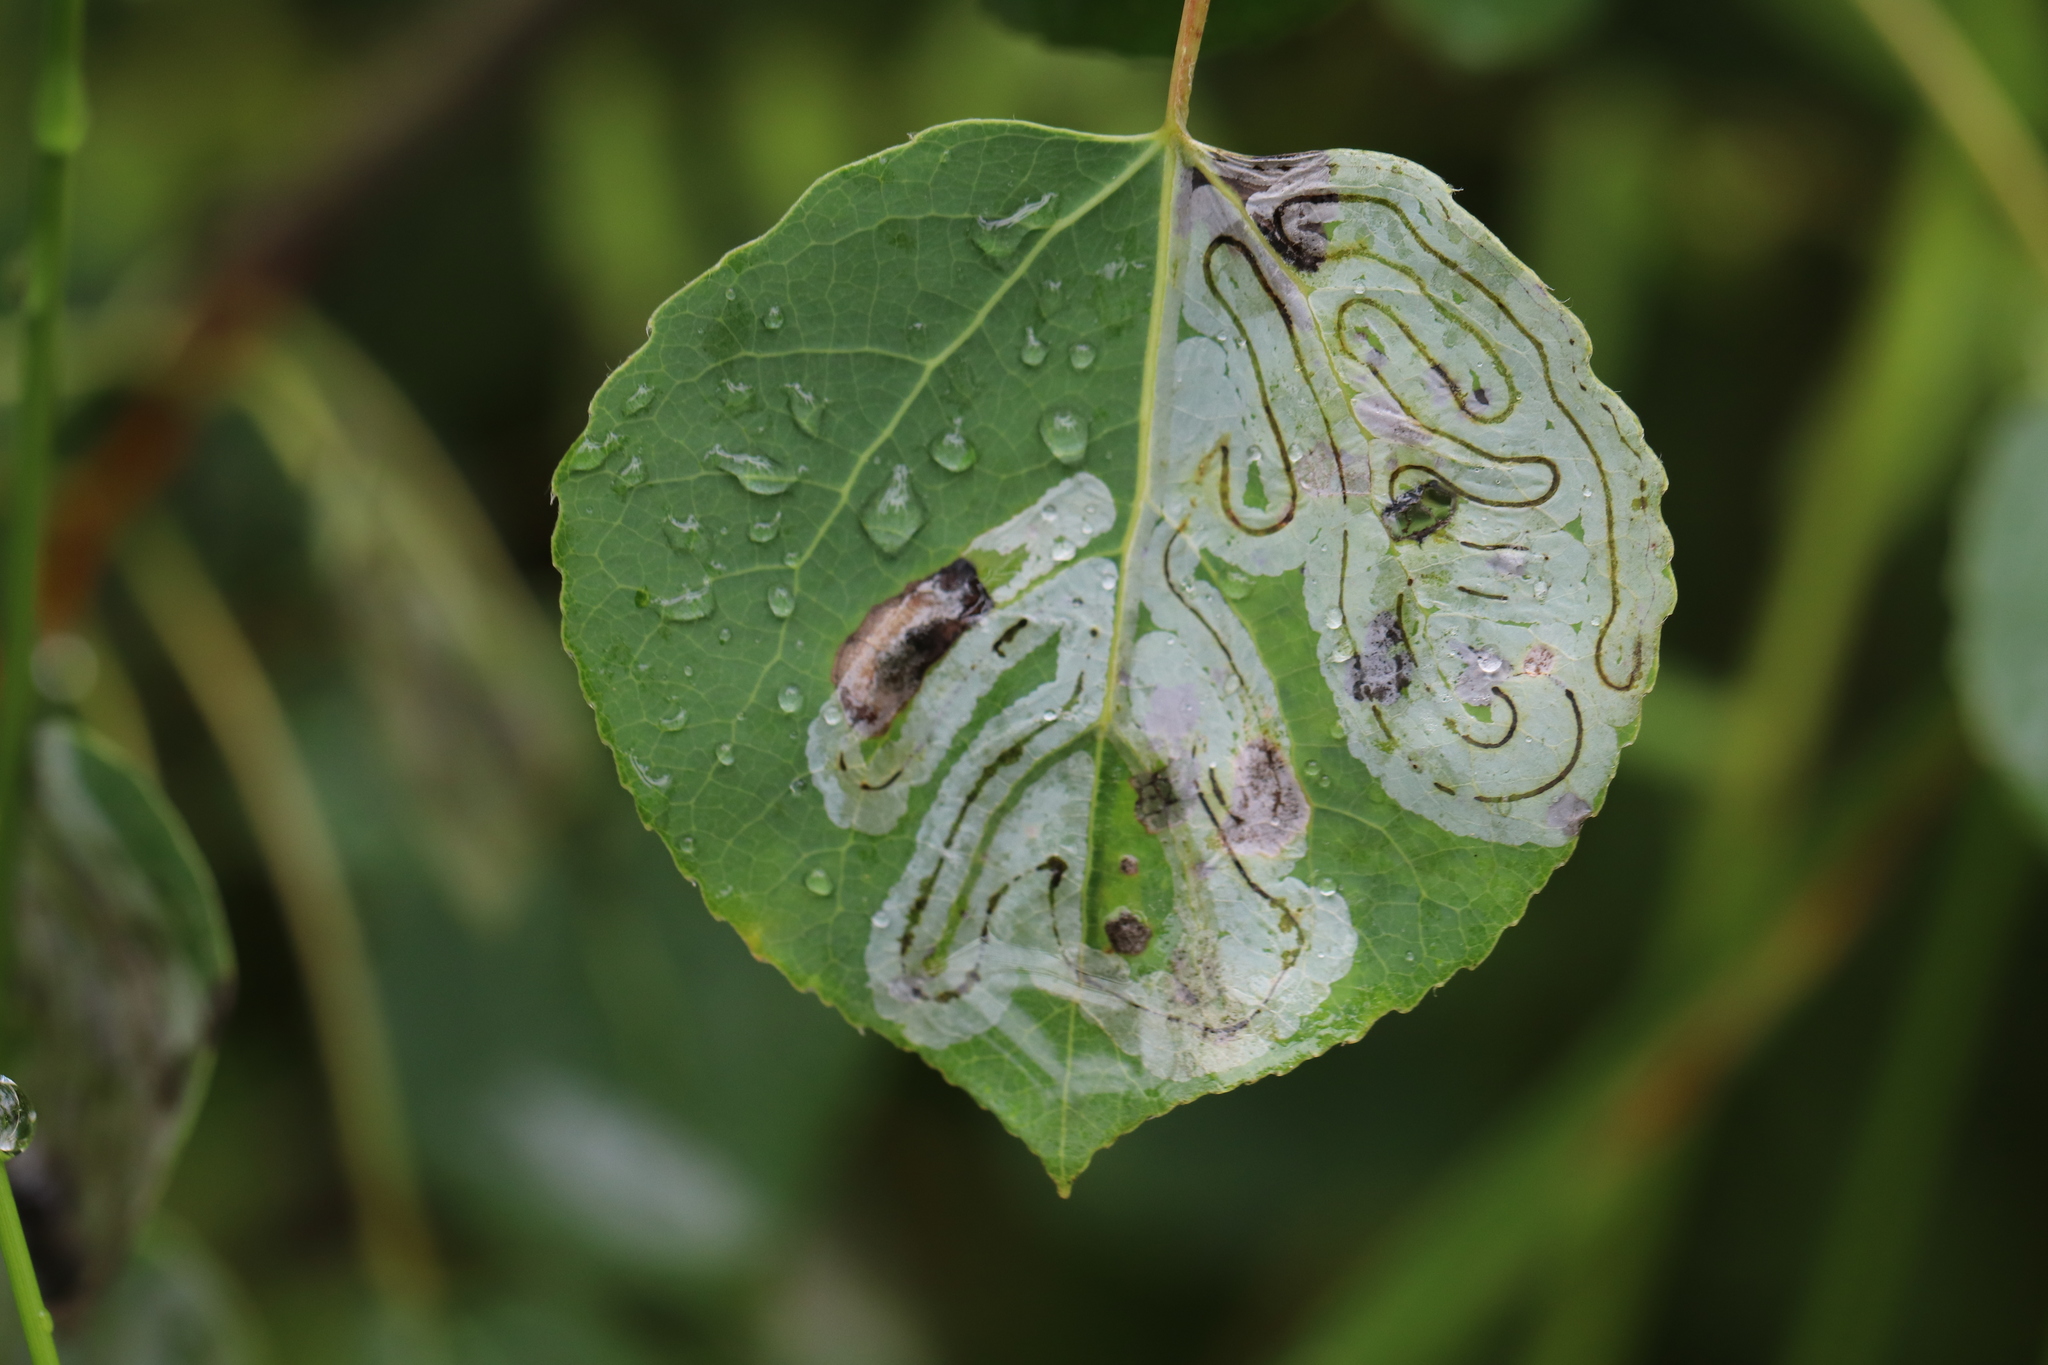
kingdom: Animalia
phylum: Arthropoda
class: Insecta
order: Lepidoptera
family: Gracillariidae
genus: Phyllocnistis
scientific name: Phyllocnistis populiella
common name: Aspen serpentine leafminer moth
